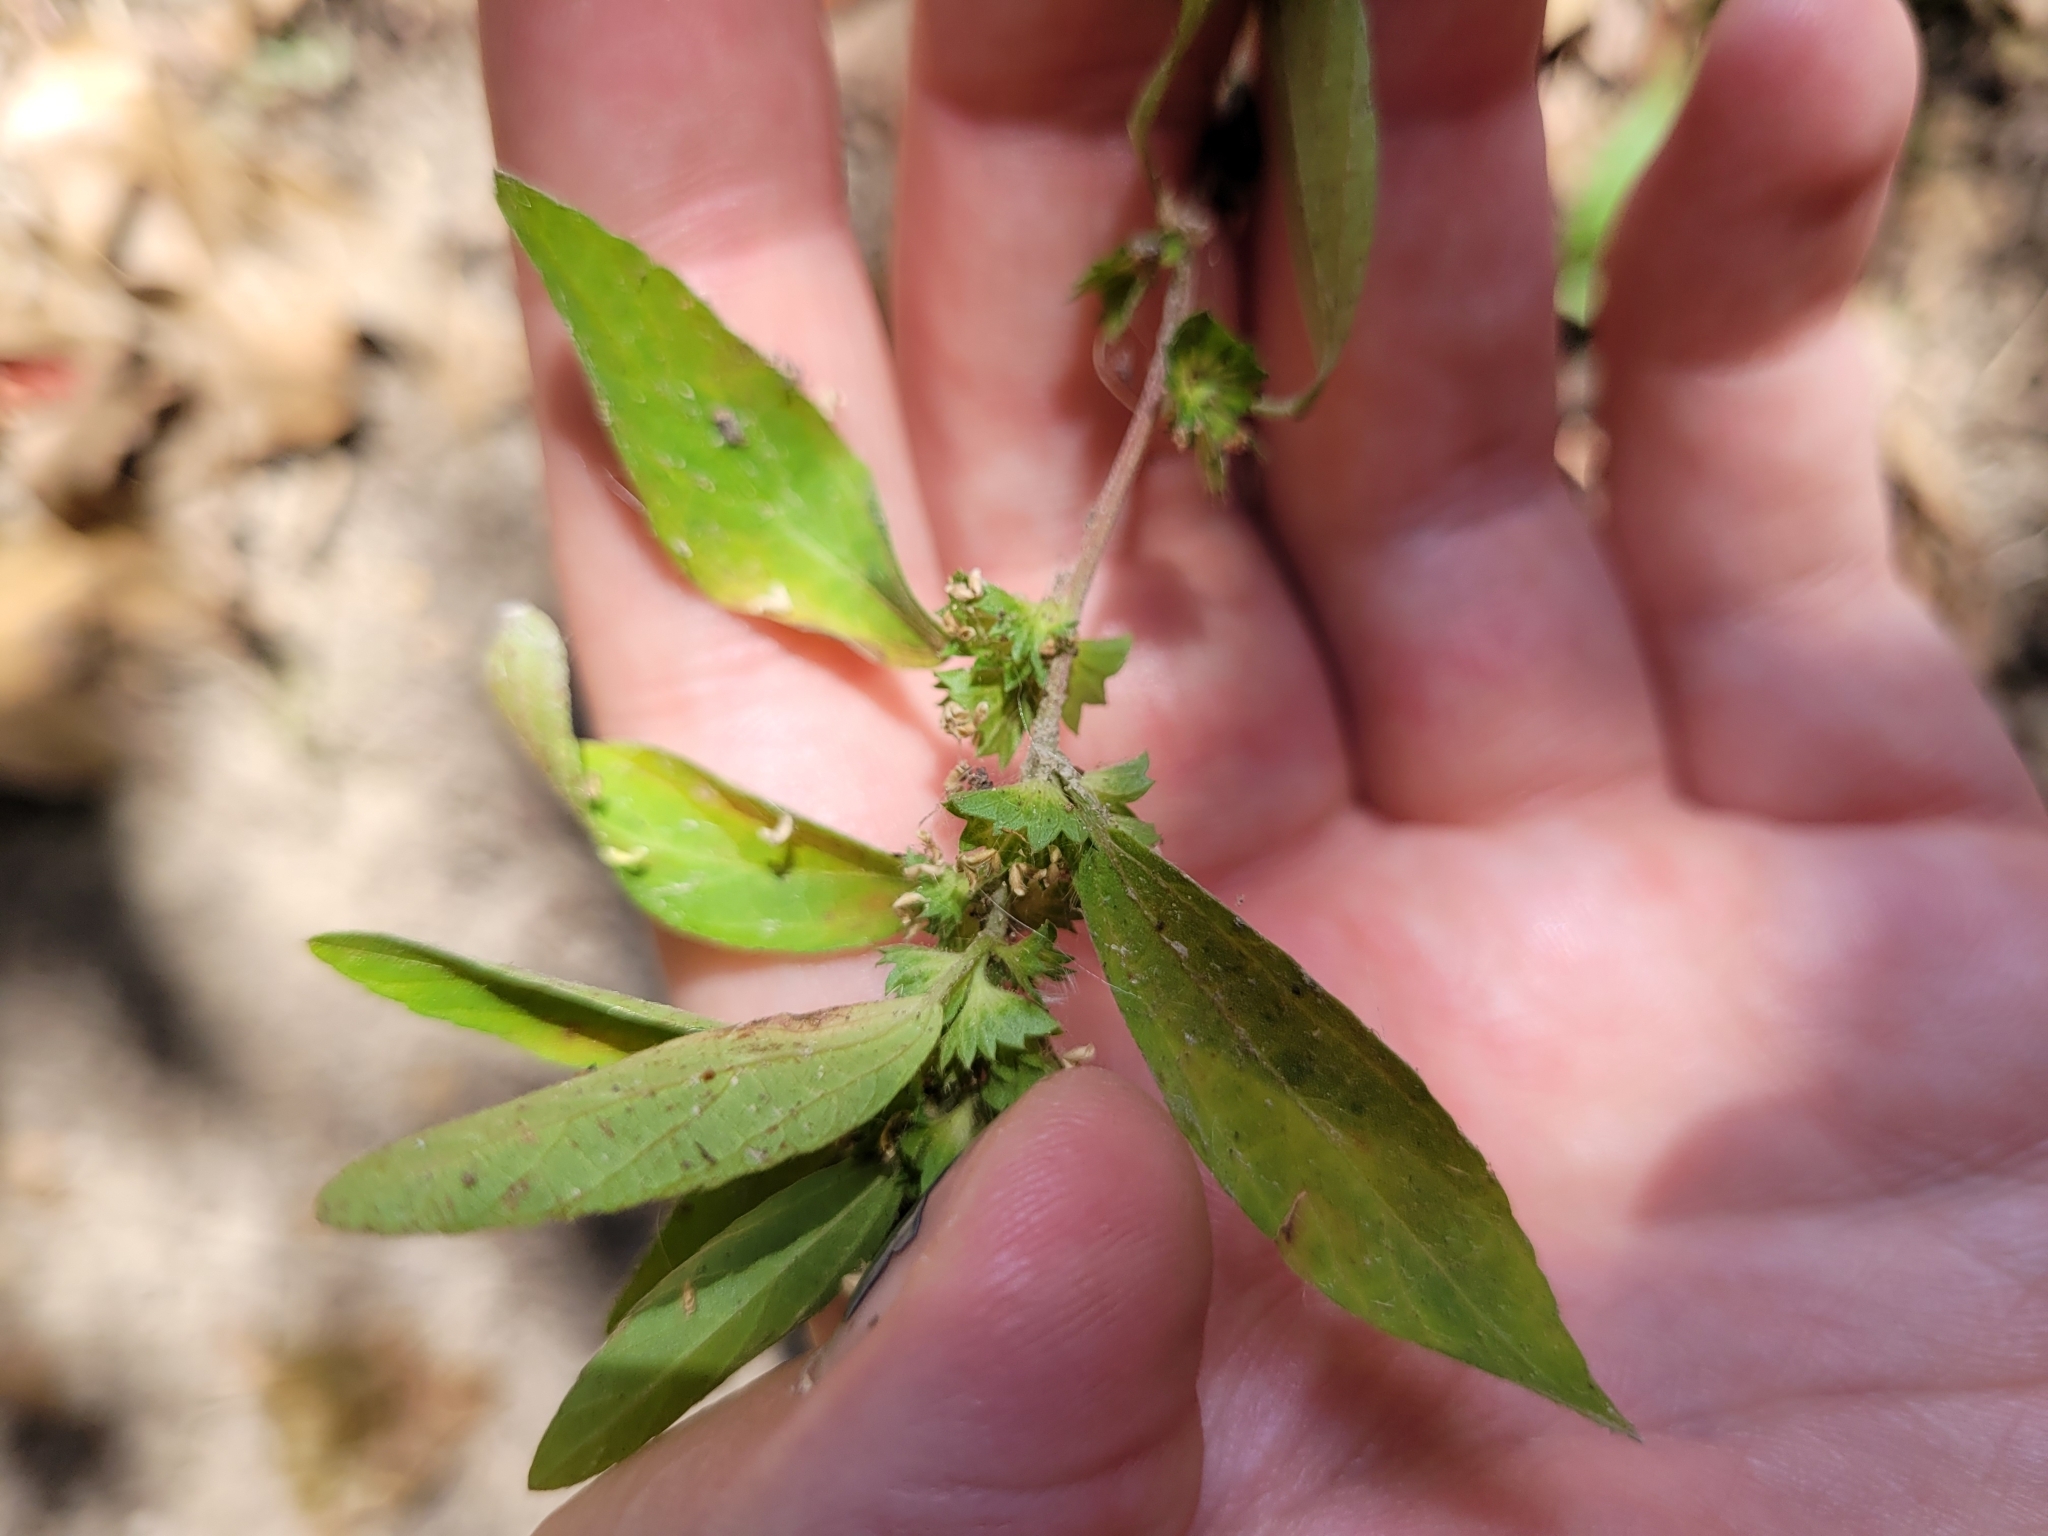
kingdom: Plantae
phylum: Tracheophyta
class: Magnoliopsida
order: Malpighiales
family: Euphorbiaceae
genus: Acalypha
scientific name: Acalypha gracilens
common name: Slender three-seeded mercury
